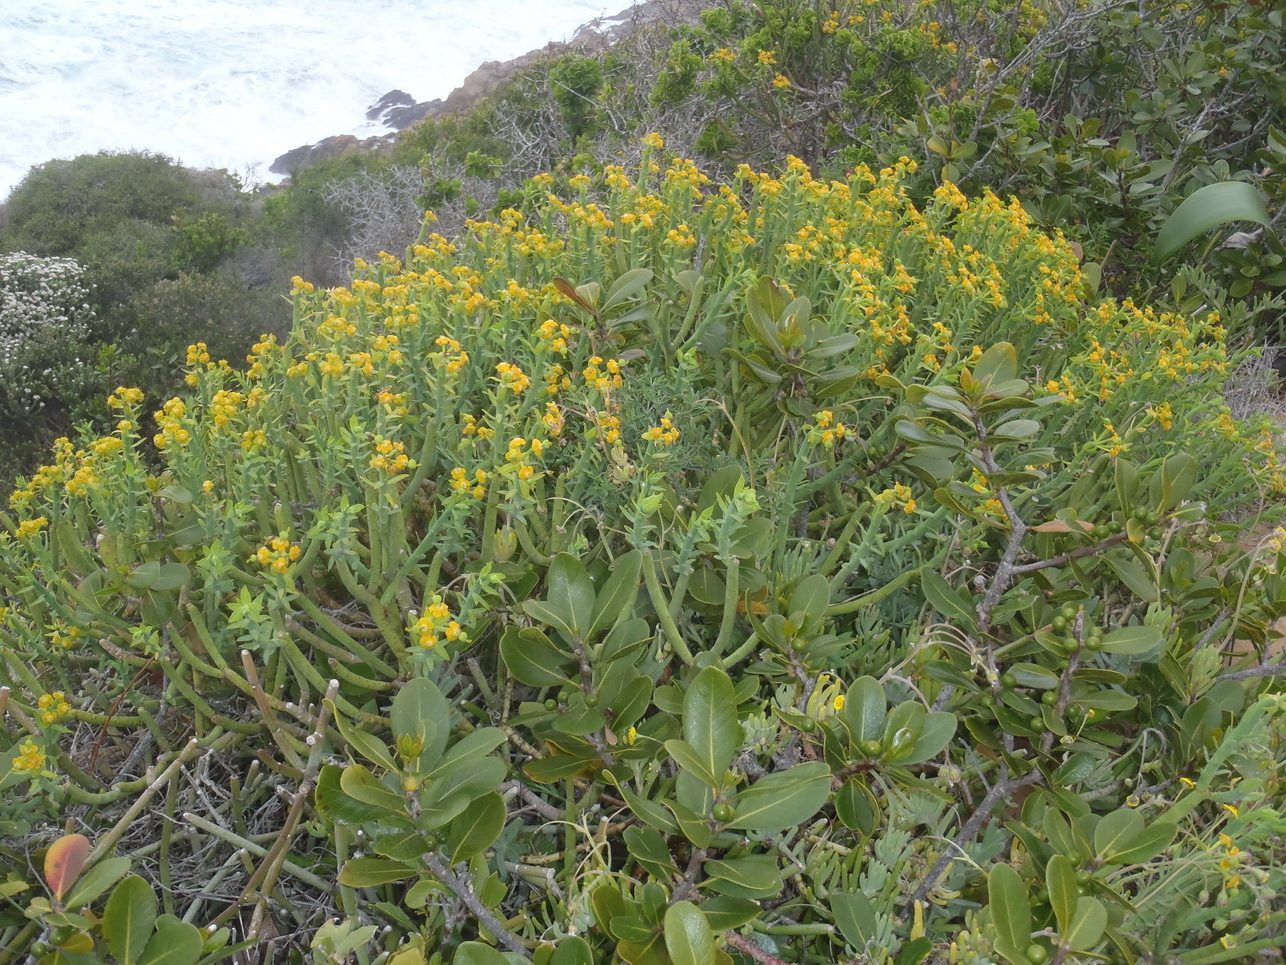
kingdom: Plantae
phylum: Tracheophyta
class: Magnoliopsida
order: Malpighiales
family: Euphorbiaceae
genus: Euphorbia
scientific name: Euphorbia mauritanica
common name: Jackal's-food
